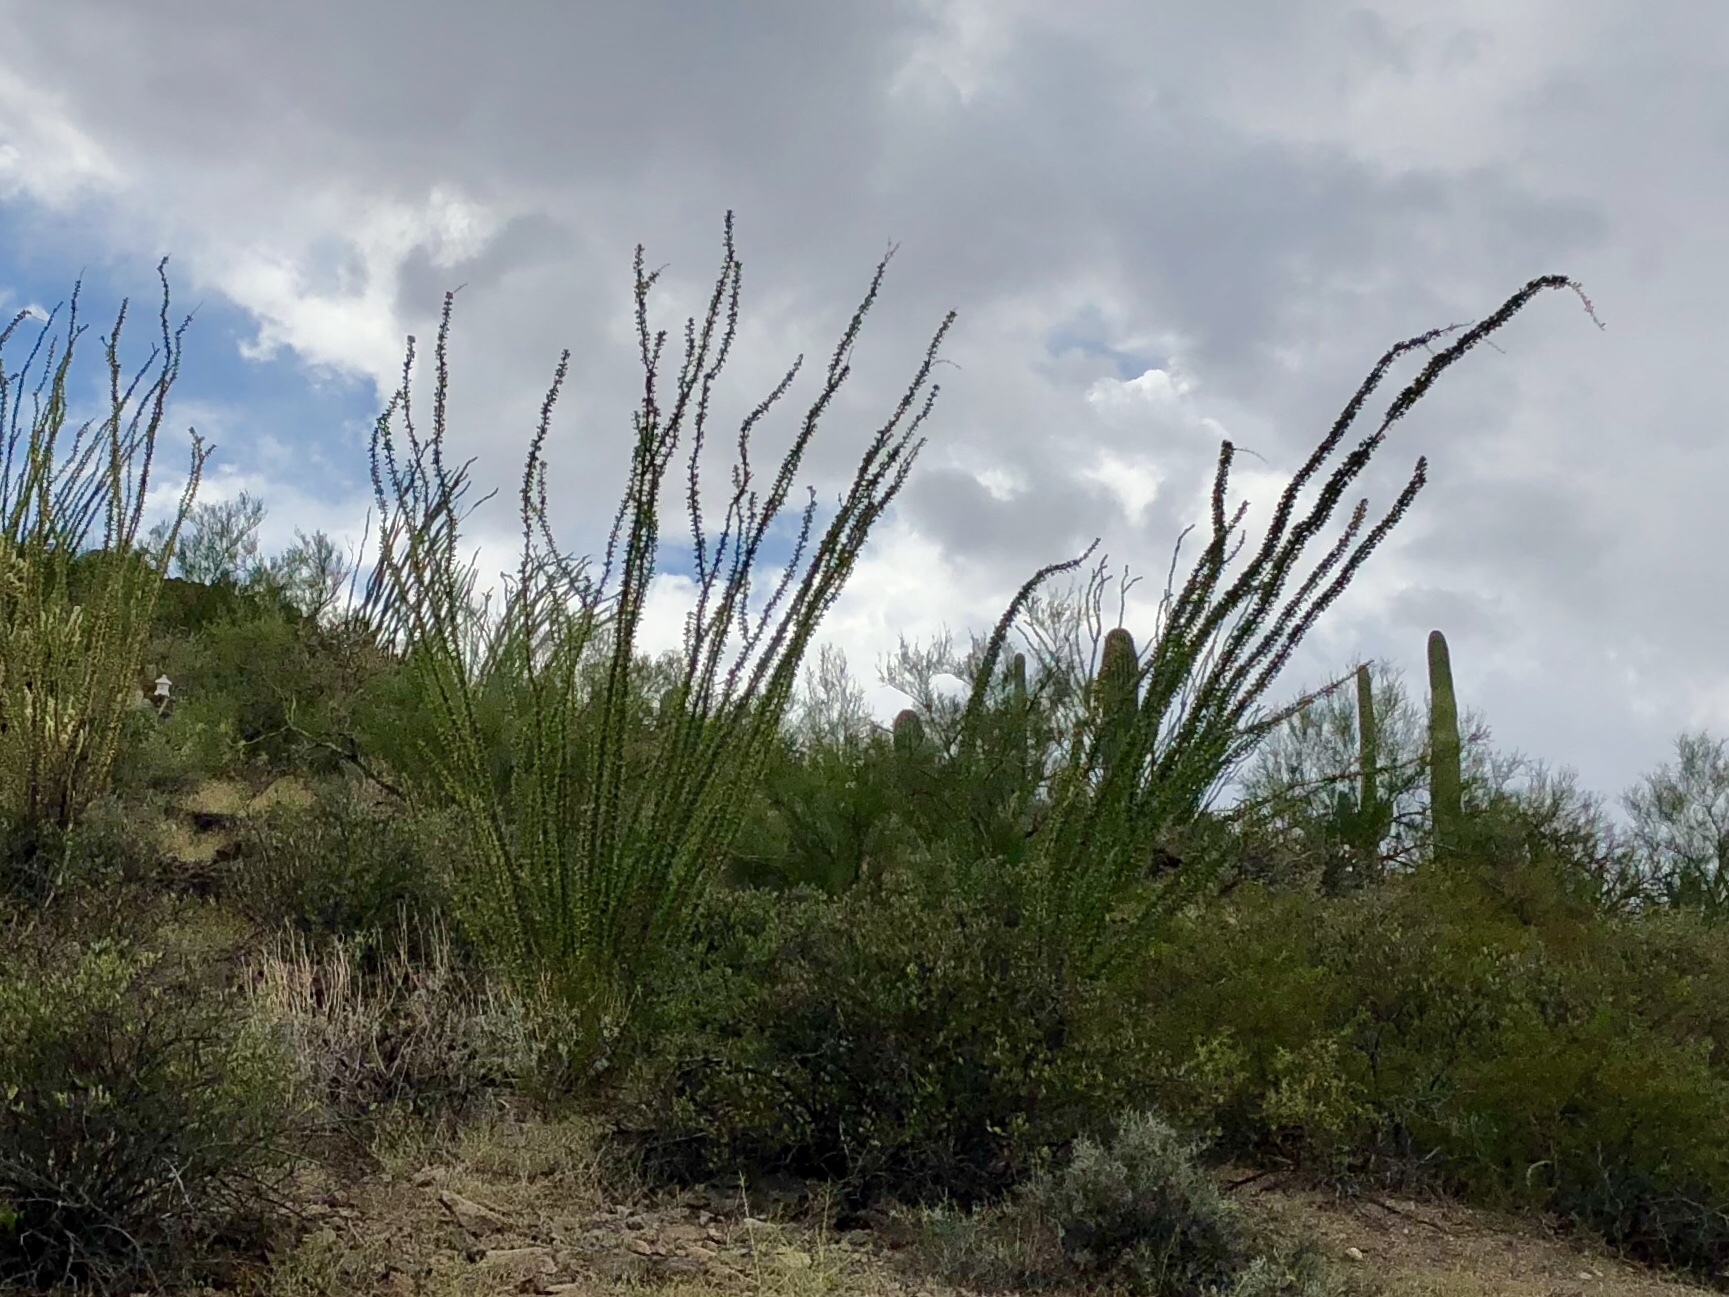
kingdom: Plantae
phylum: Tracheophyta
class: Magnoliopsida
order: Ericales
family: Fouquieriaceae
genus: Fouquieria
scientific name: Fouquieria splendens
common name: Vine-cactus
